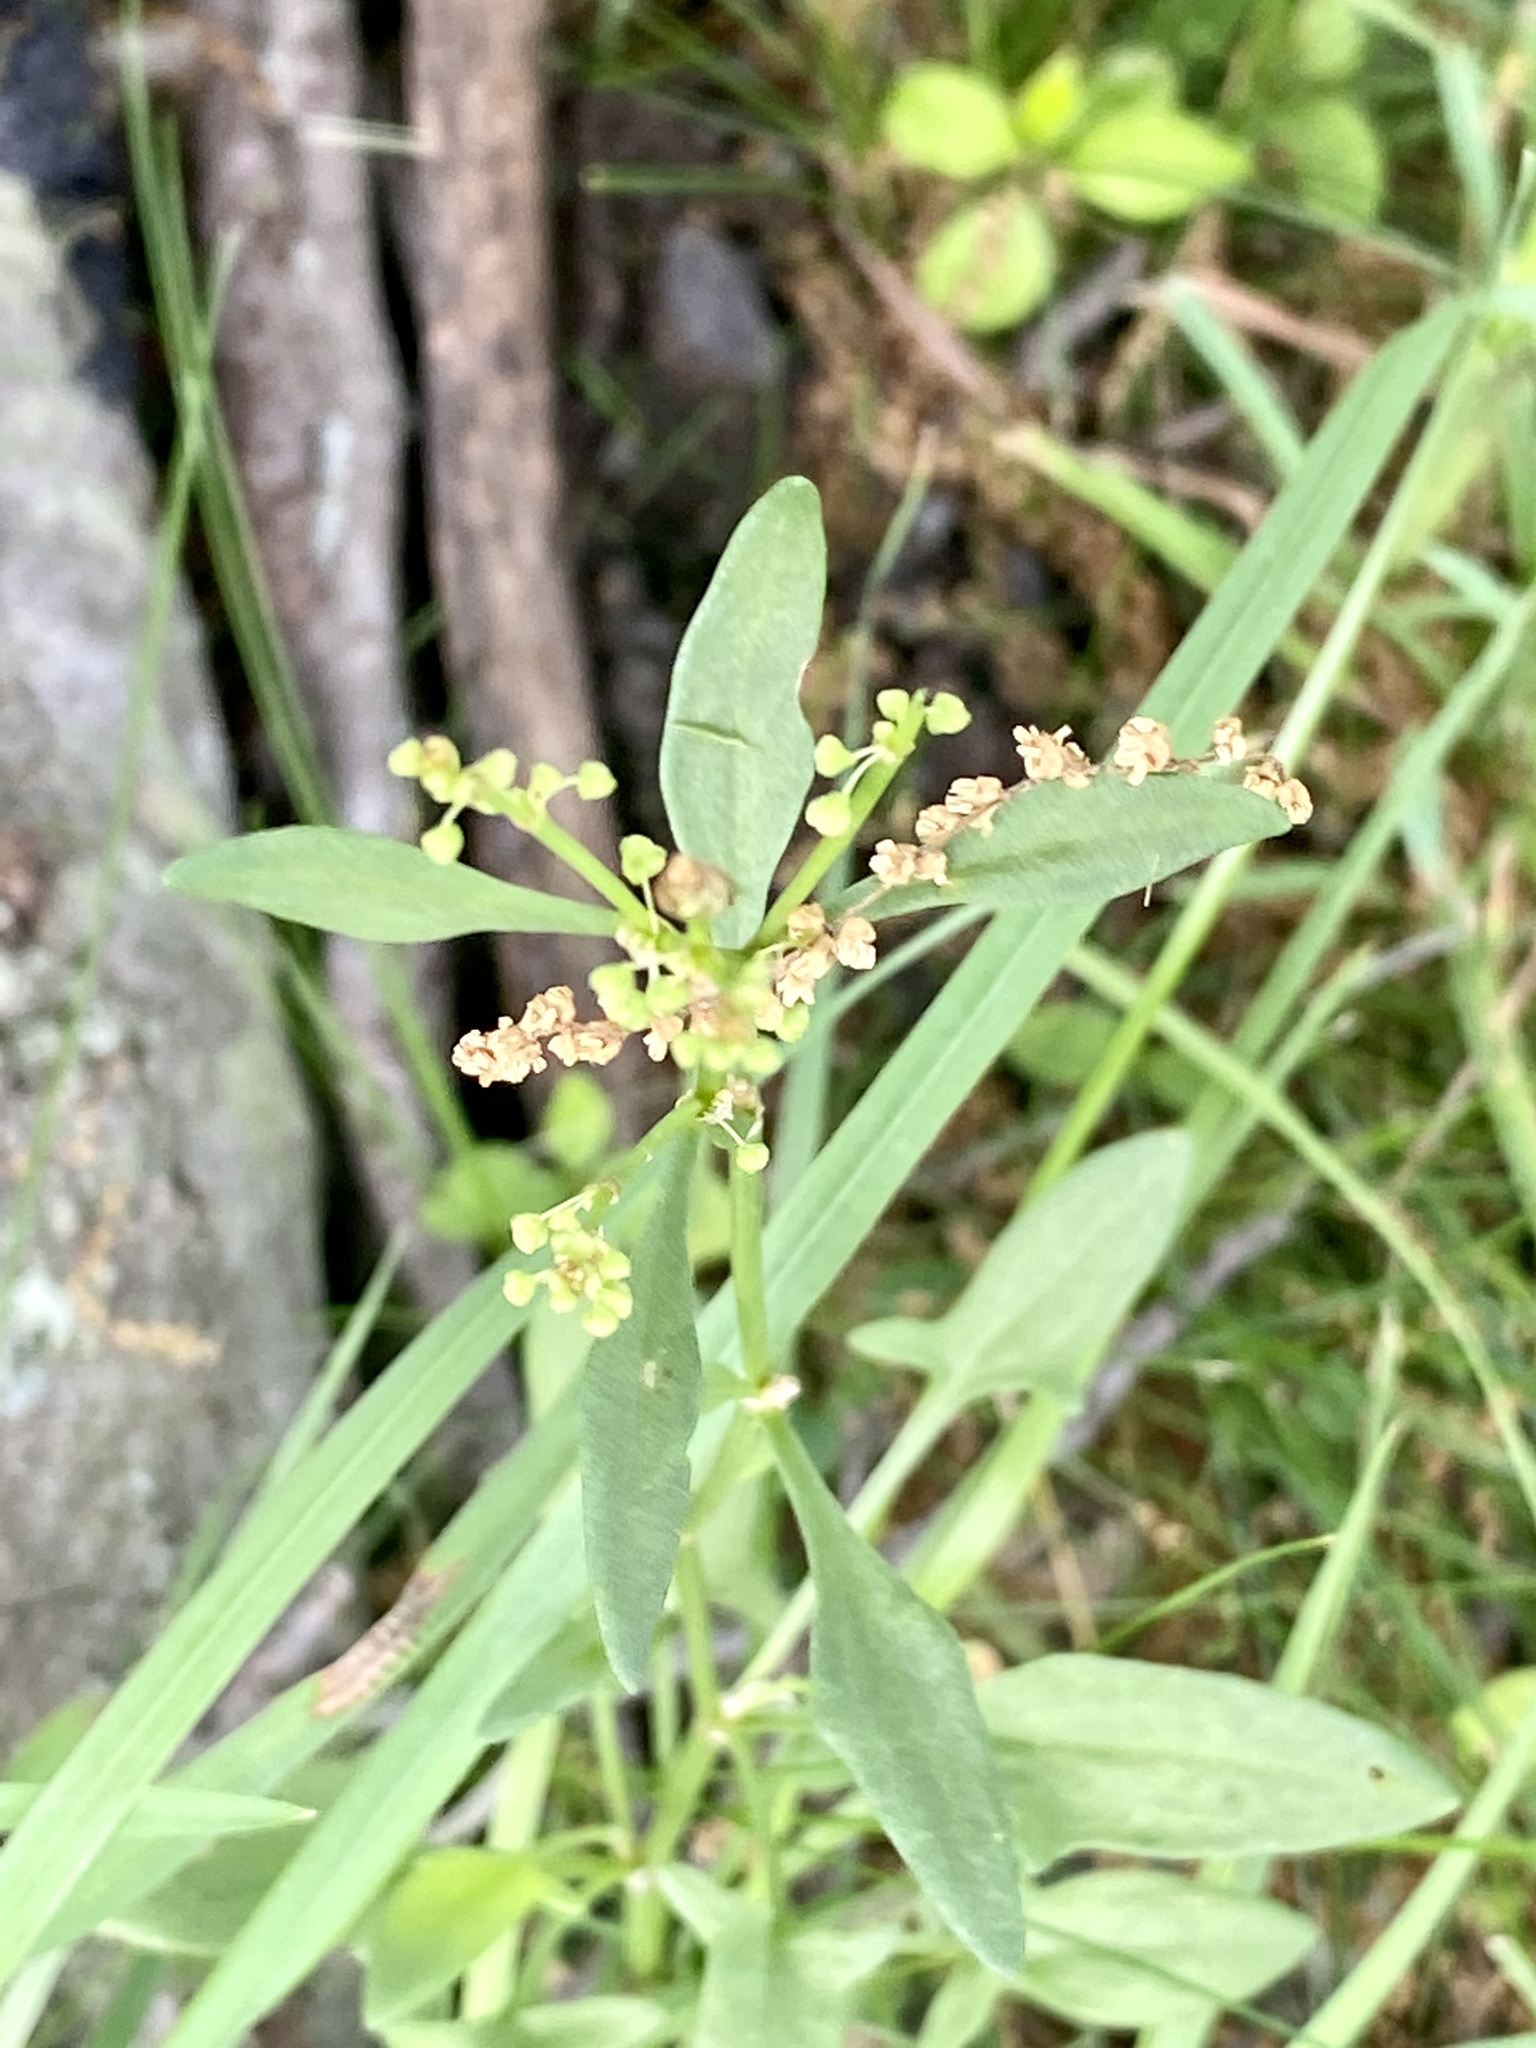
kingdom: Plantae
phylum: Tracheophyta
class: Magnoliopsida
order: Caryophyllales
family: Polygonaceae
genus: Rumex
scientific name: Rumex acetosella
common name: Common sheep sorrel
